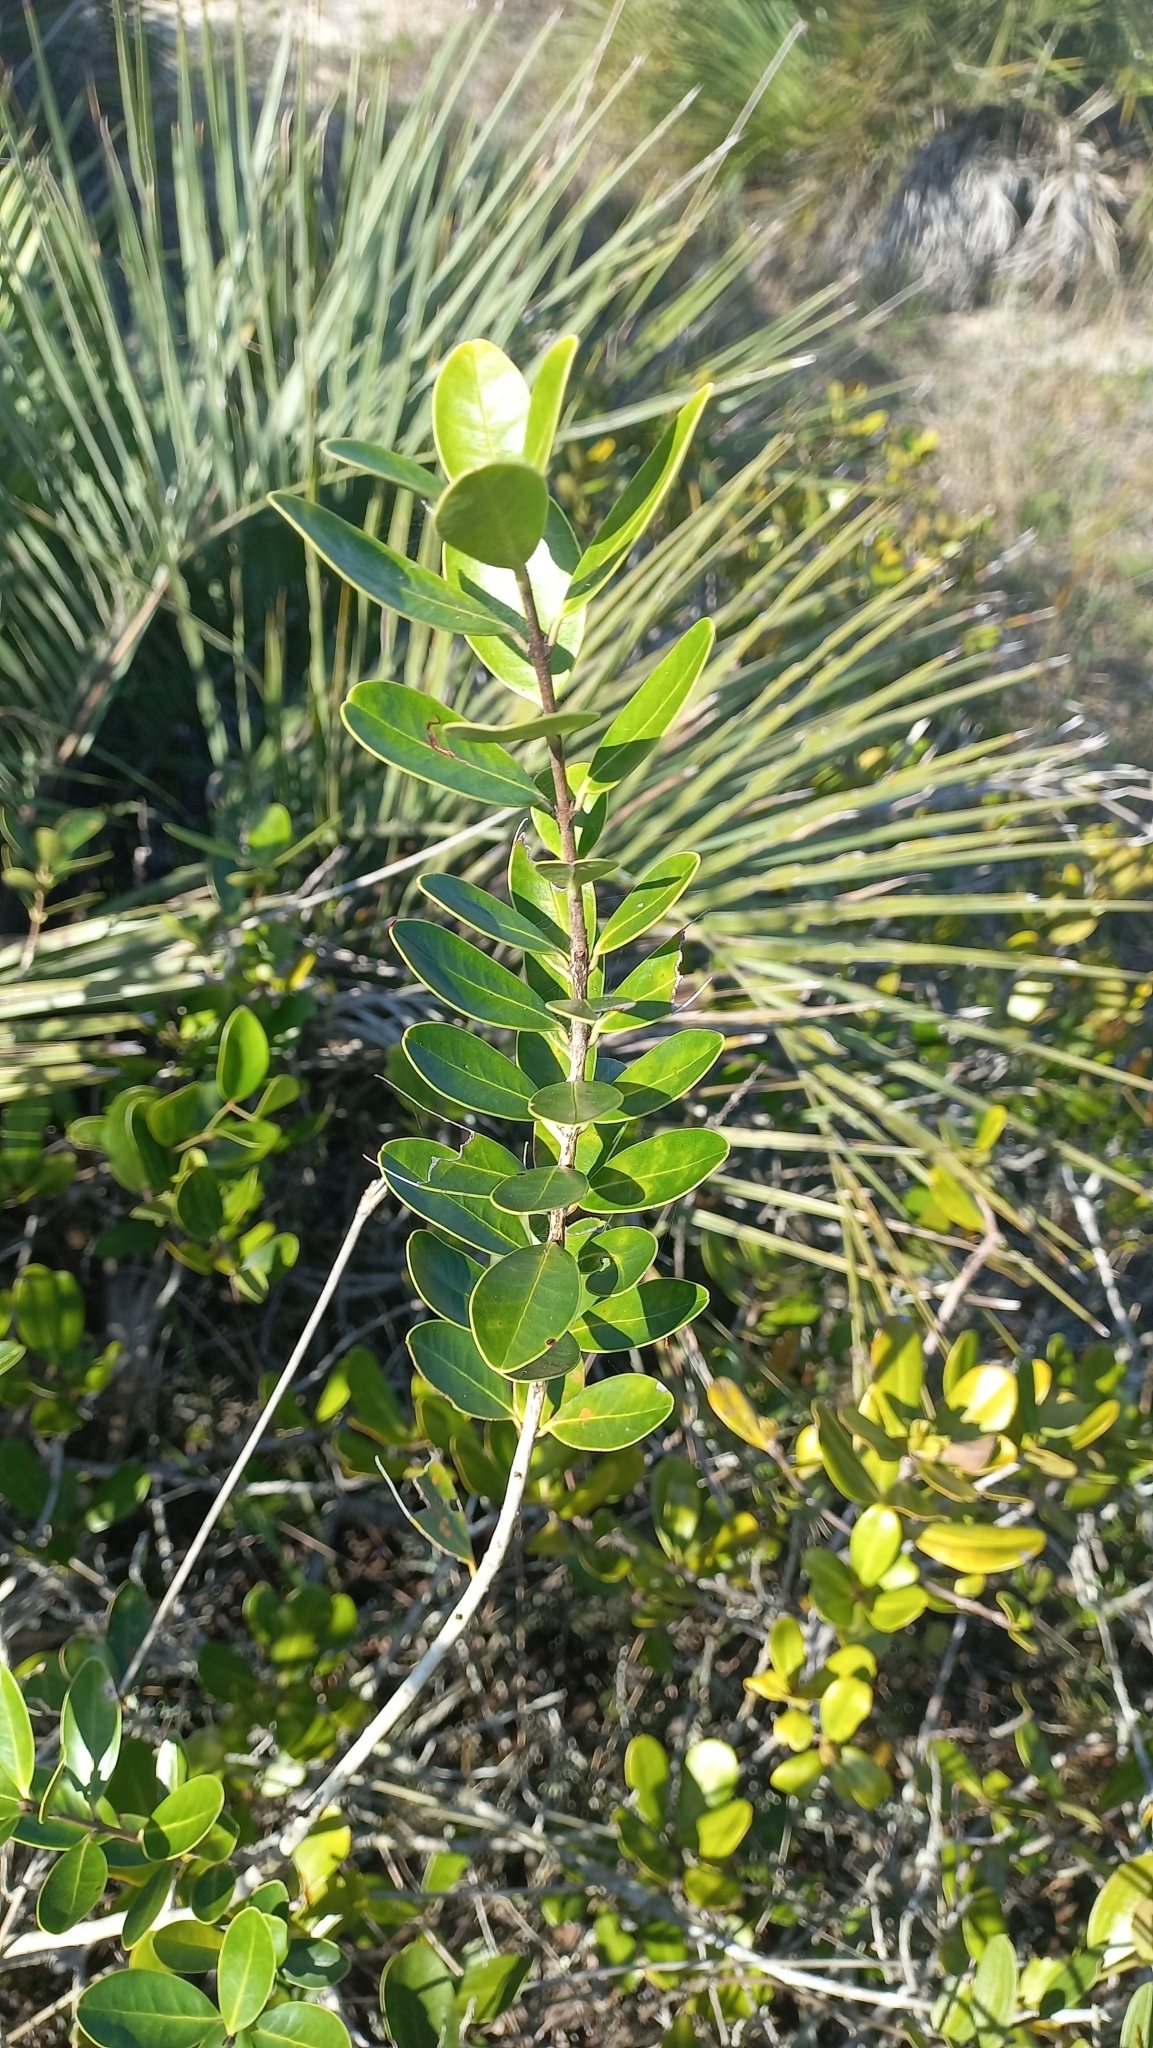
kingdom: Plantae
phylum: Tracheophyta
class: Magnoliopsida
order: Myrtales
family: Myrtaceae
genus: Eugenia
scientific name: Eugenia speciosa
